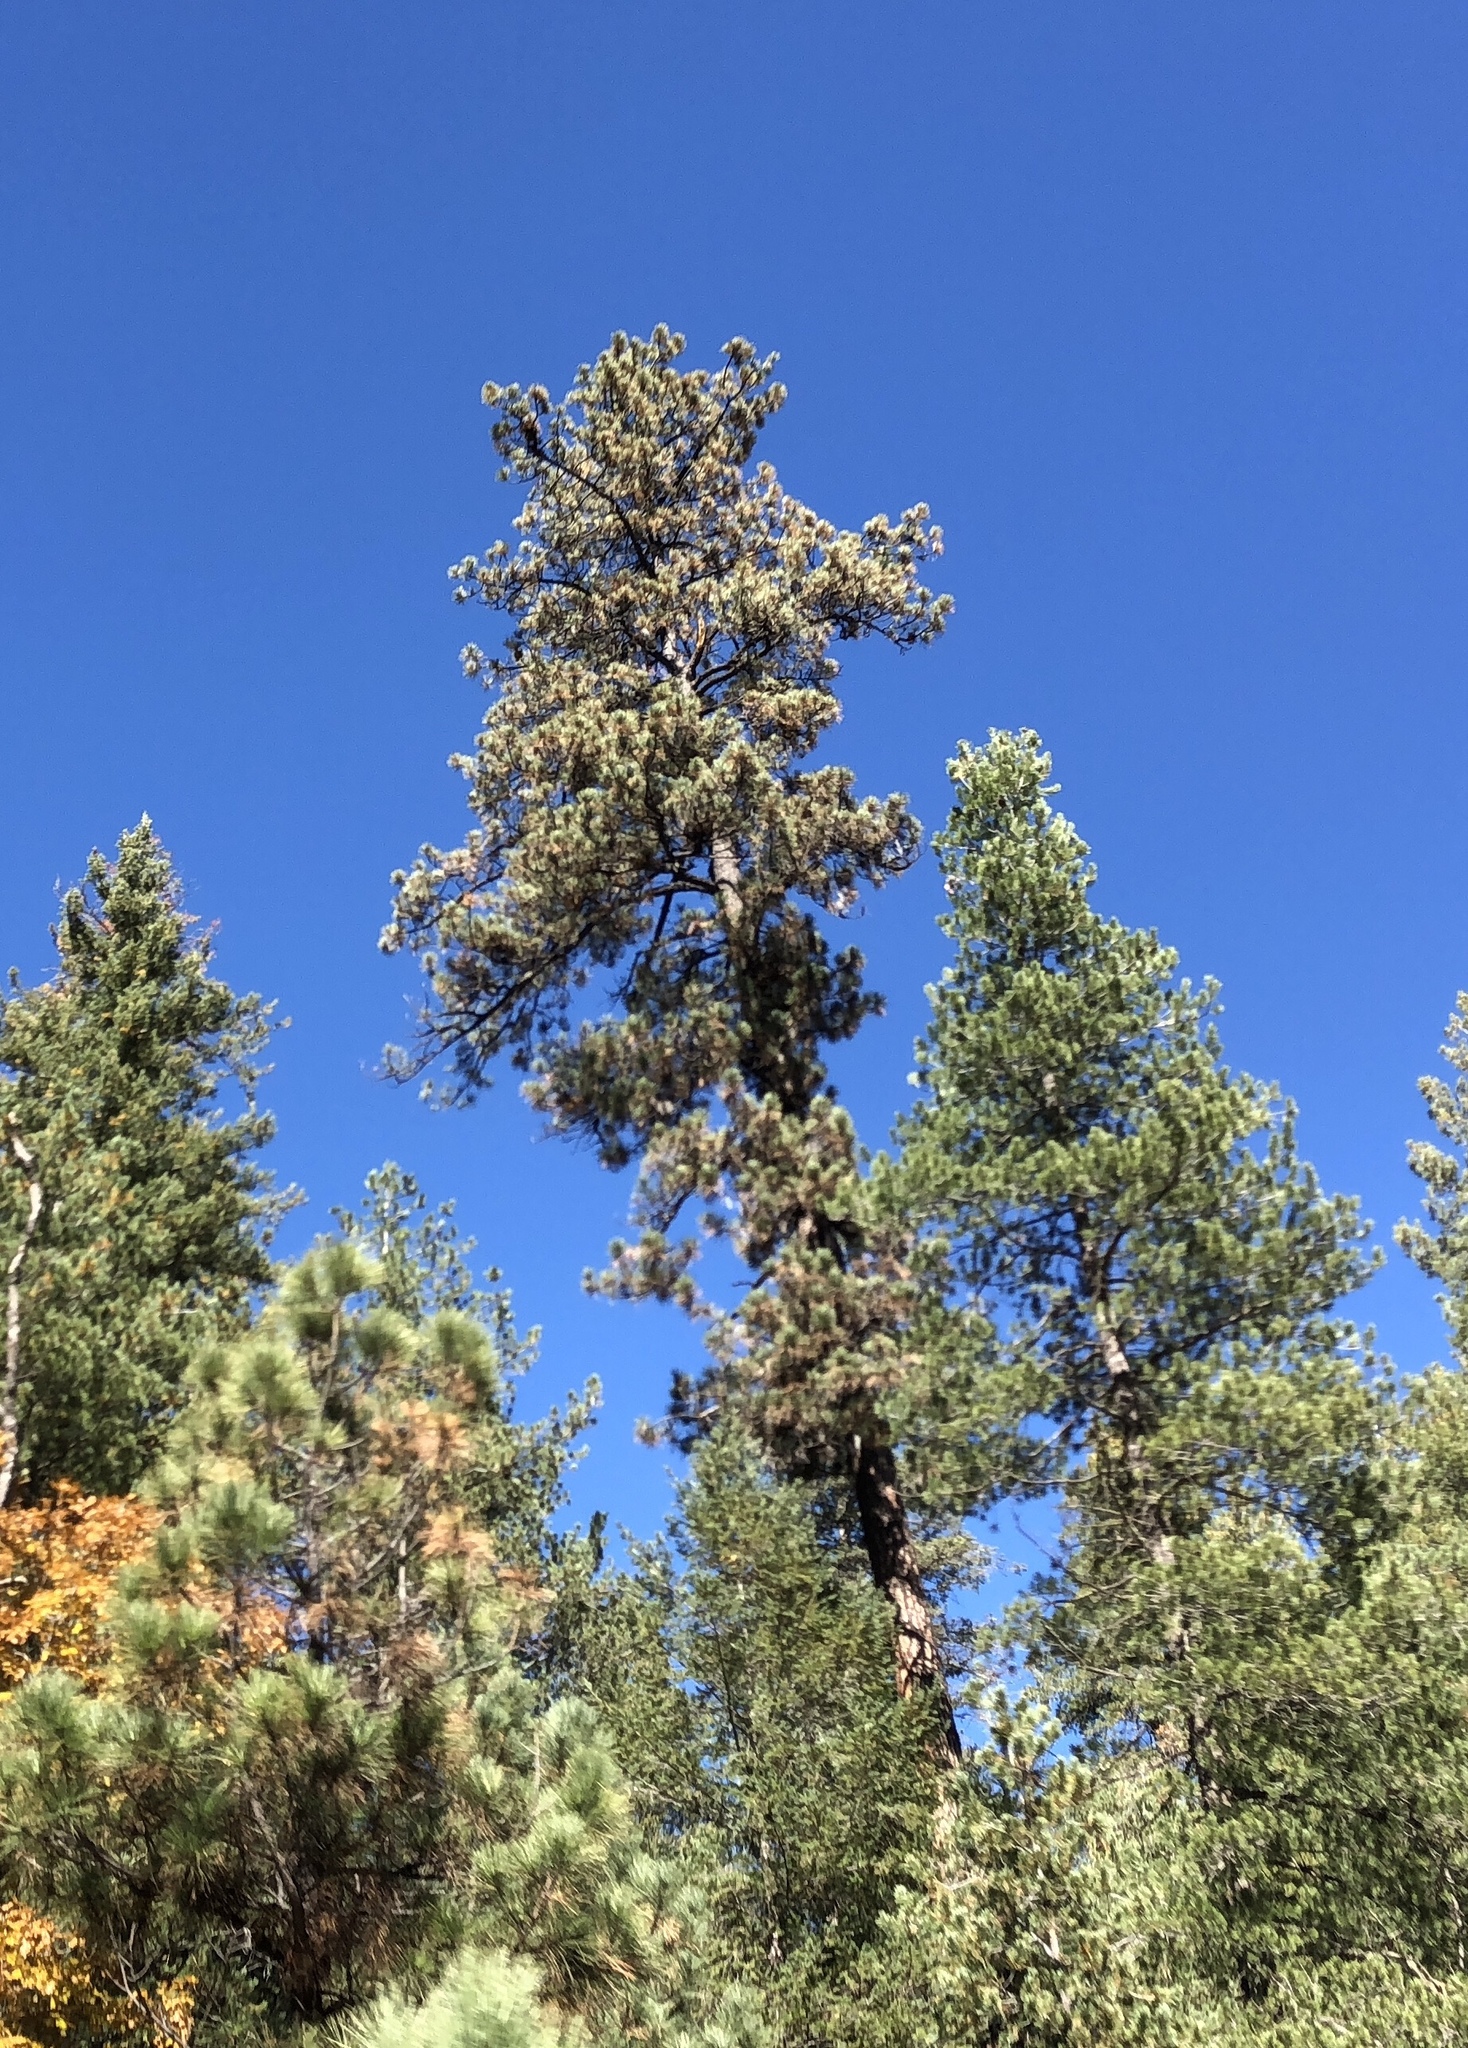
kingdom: Plantae
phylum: Tracheophyta
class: Pinopsida
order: Pinales
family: Pinaceae
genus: Pinus
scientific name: Pinus strobiformis
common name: Southwestern white pine
